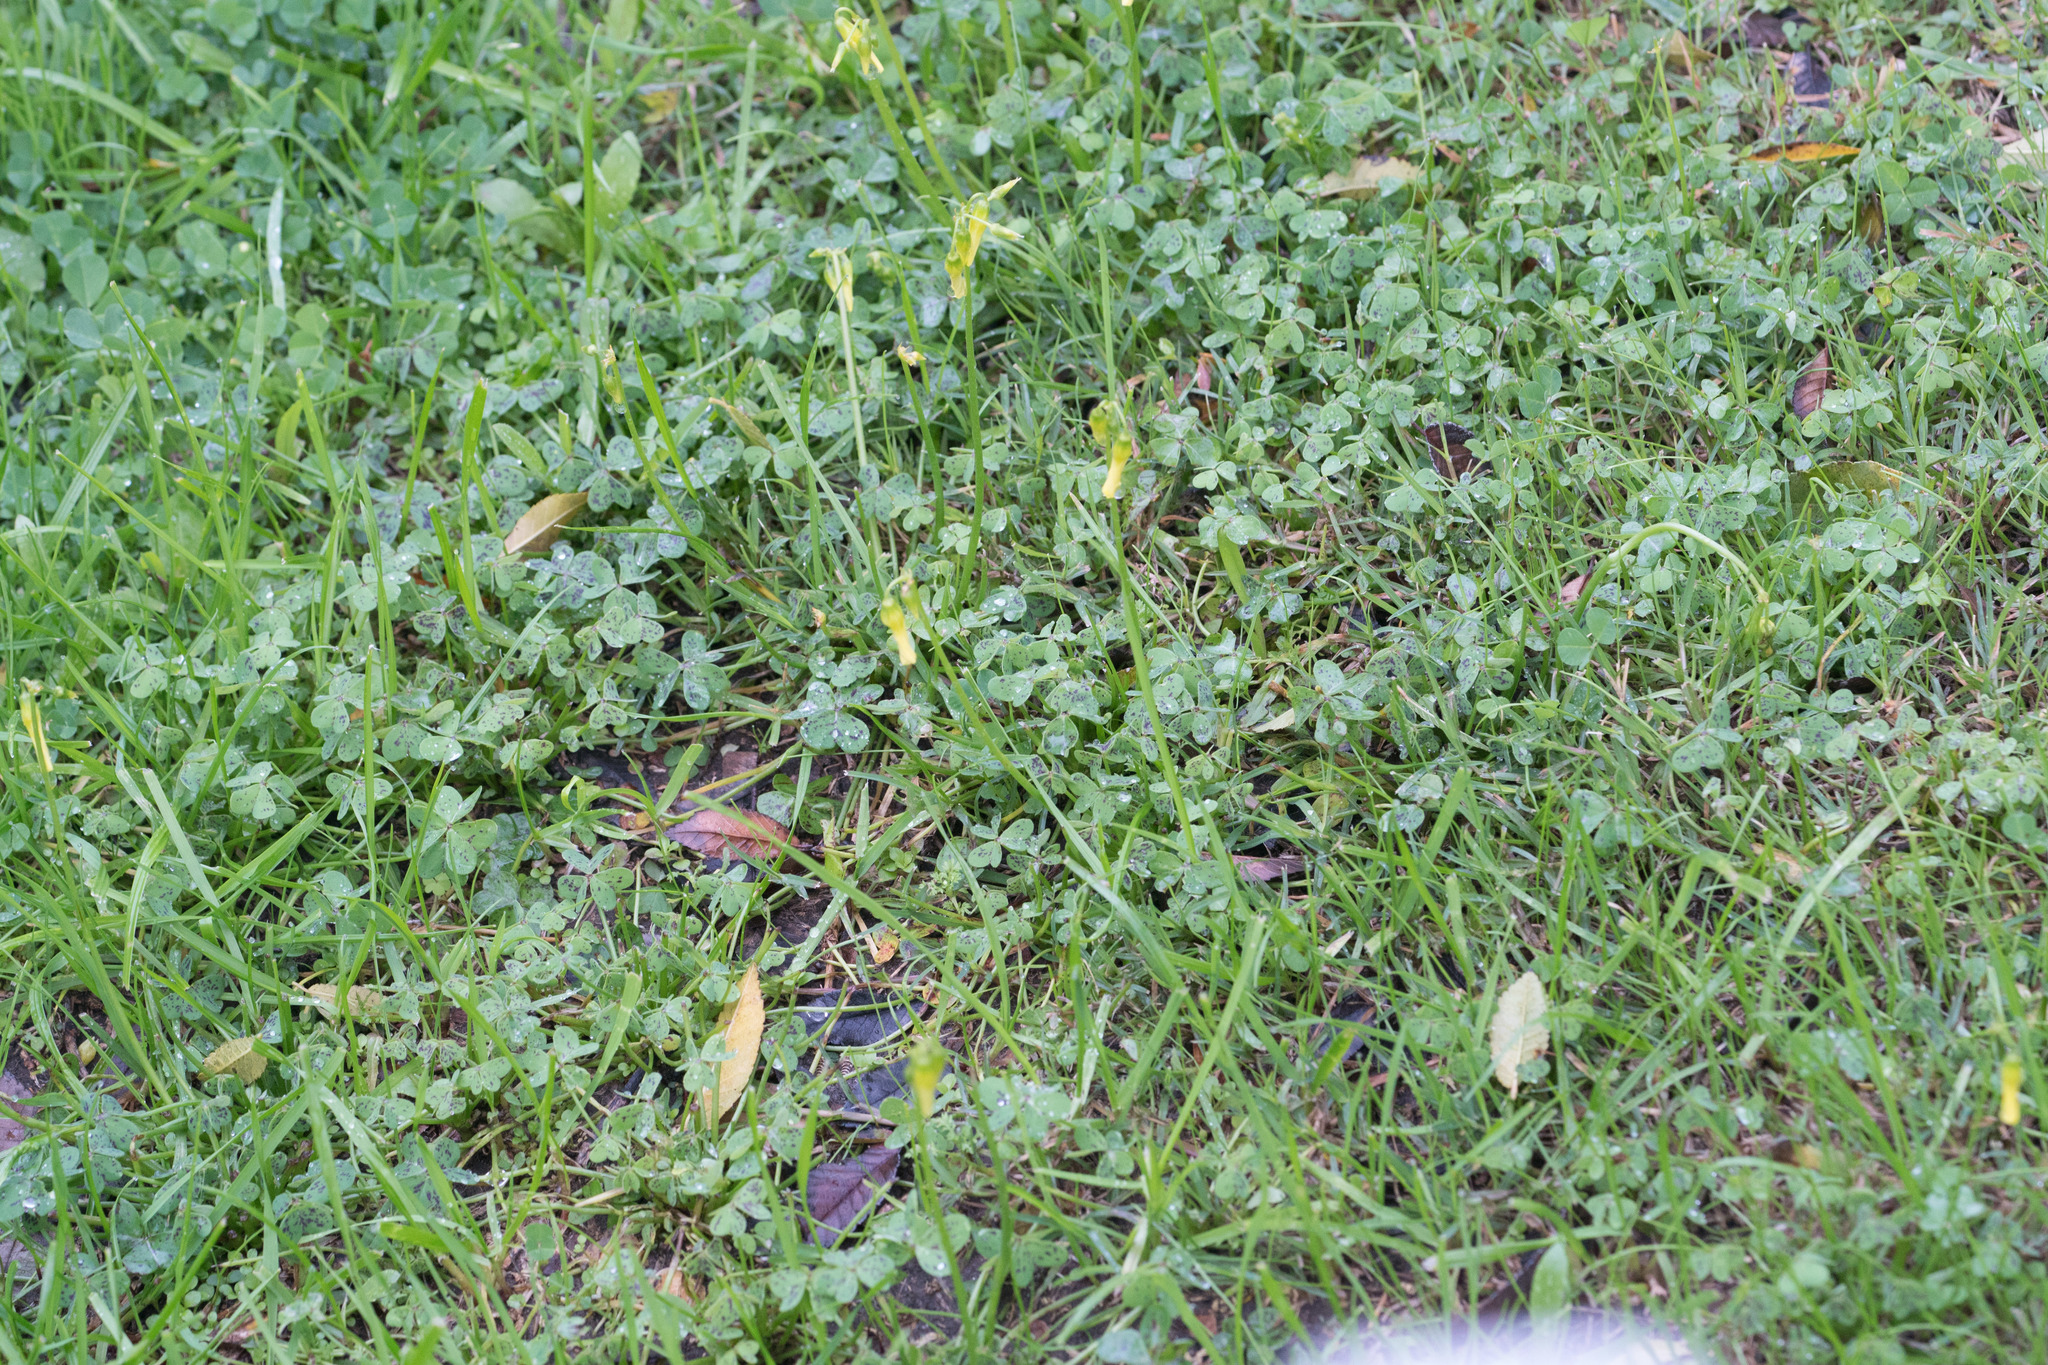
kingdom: Plantae
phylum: Tracheophyta
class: Magnoliopsida
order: Oxalidales
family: Oxalidaceae
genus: Oxalis
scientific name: Oxalis pes-caprae
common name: Bermuda-buttercup
